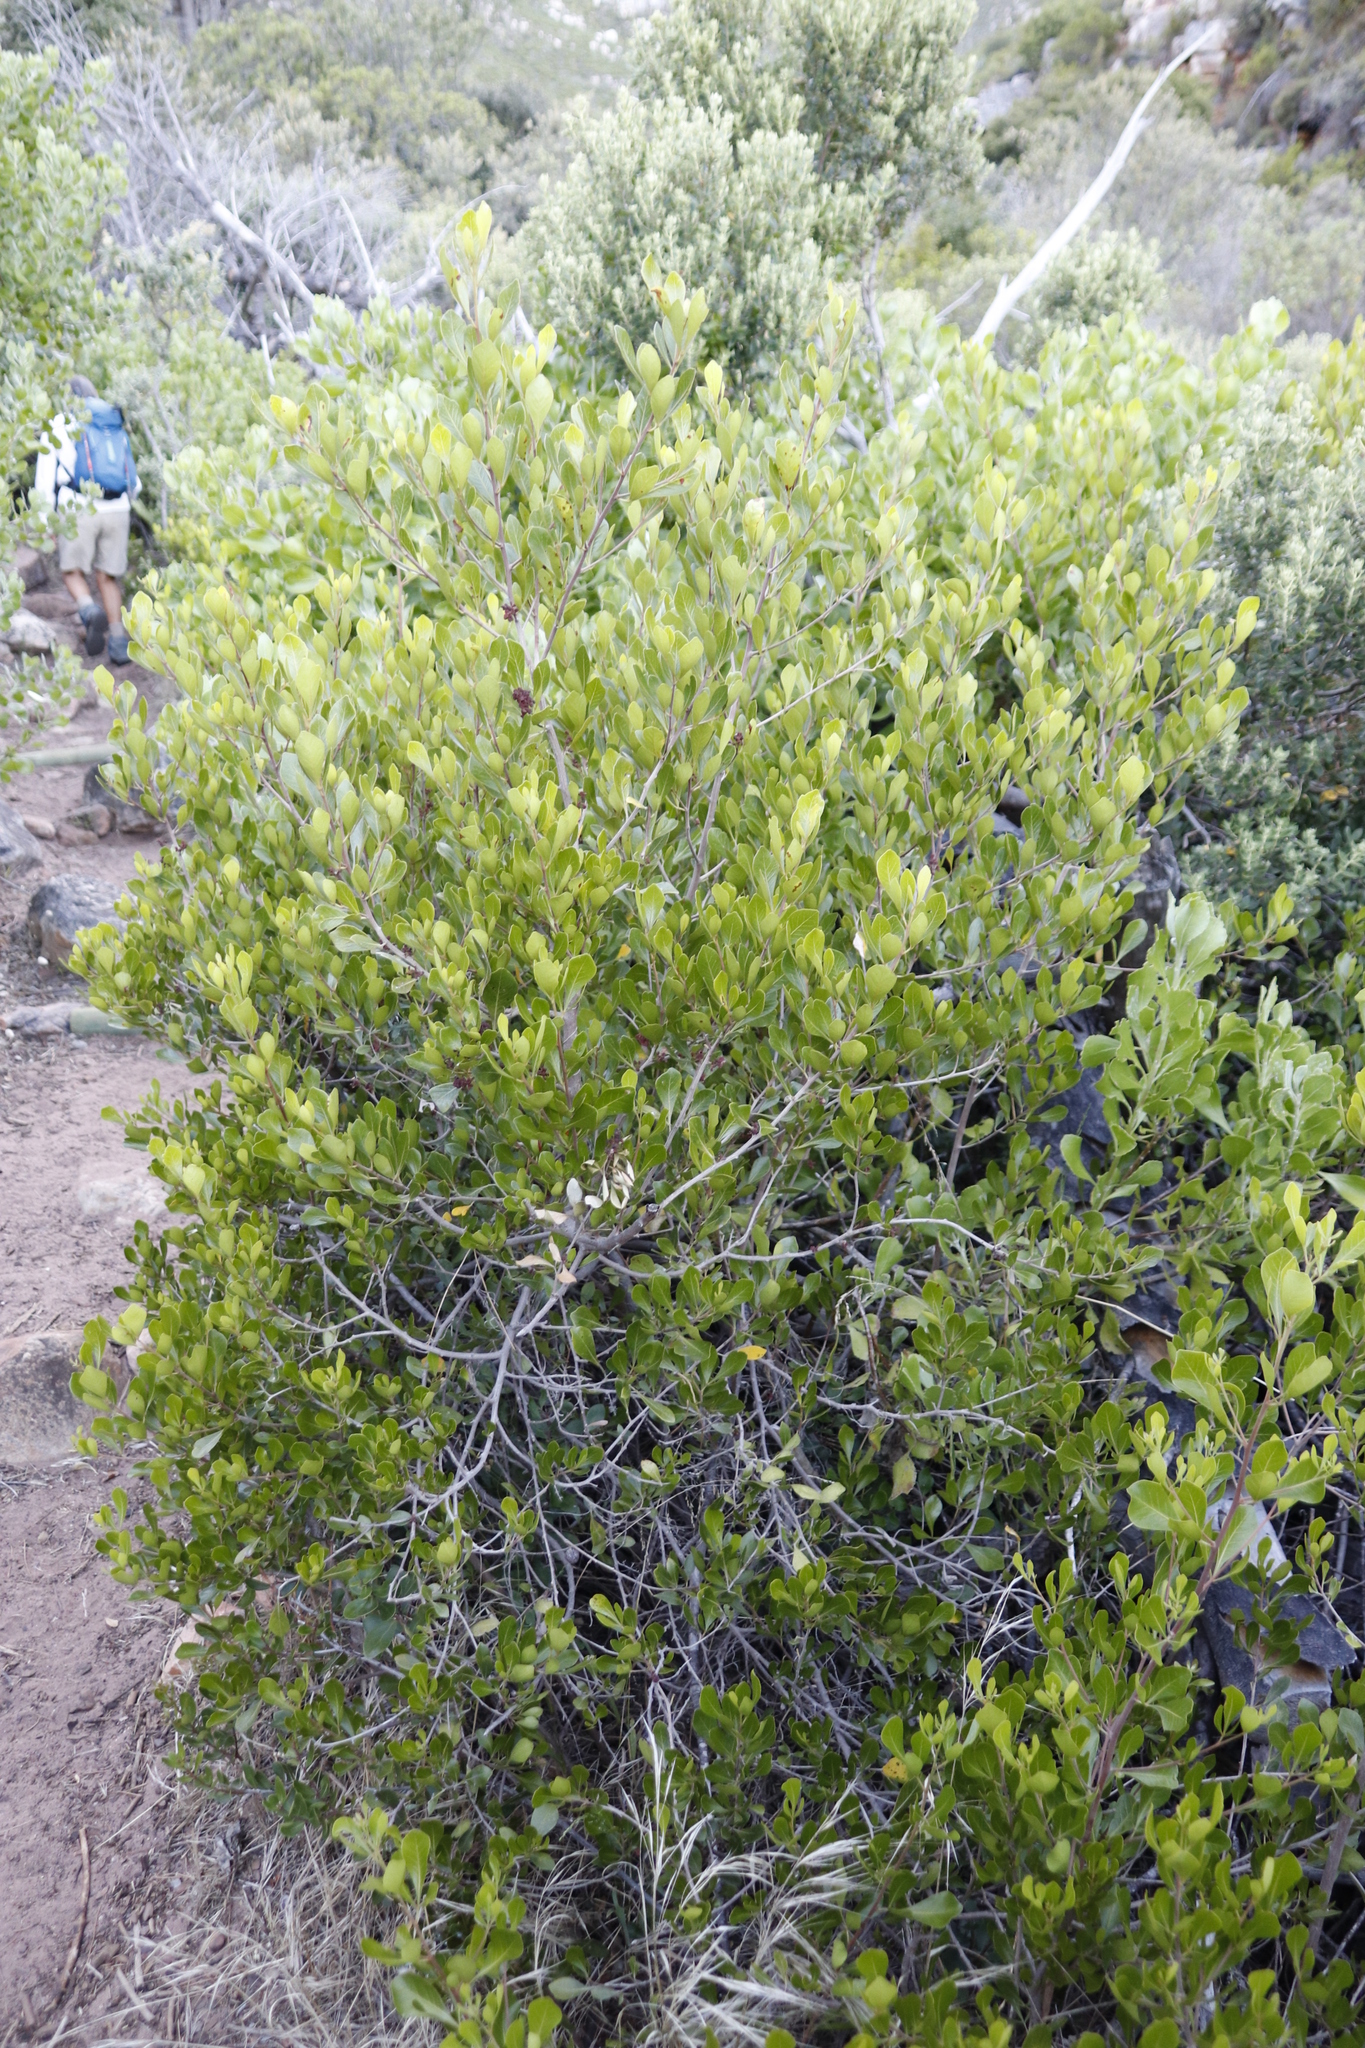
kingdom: Plantae
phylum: Tracheophyta
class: Magnoliopsida
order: Sapindales
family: Anacardiaceae
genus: Searsia
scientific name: Searsia lucida
